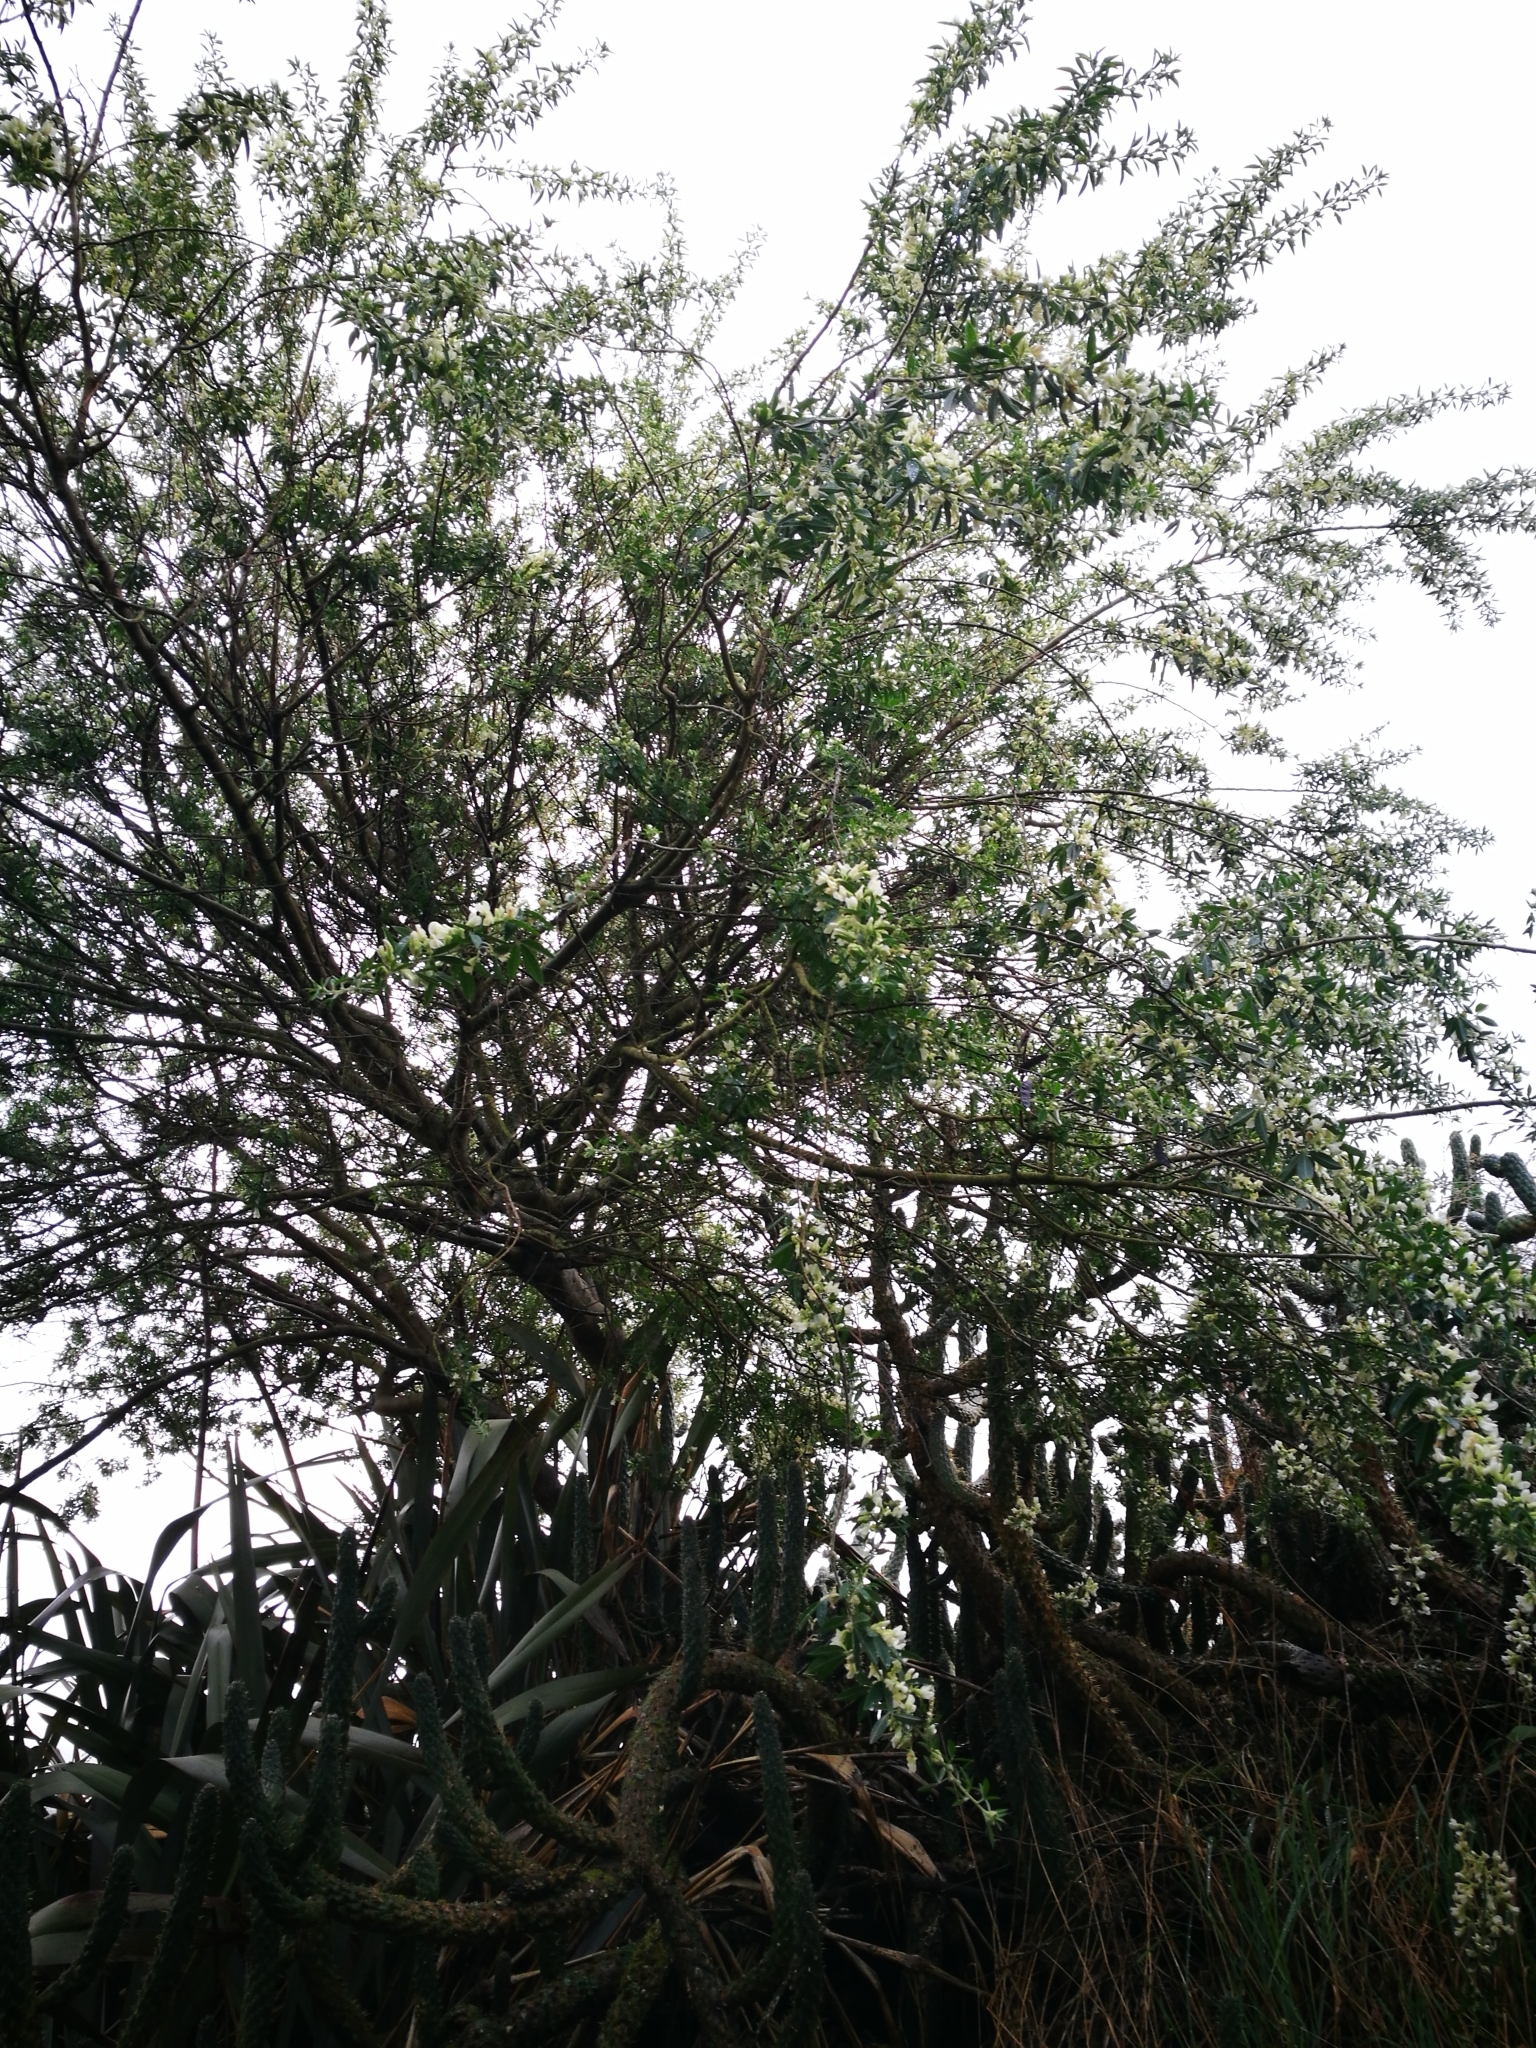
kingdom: Plantae
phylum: Tracheophyta
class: Magnoliopsida
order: Fabales
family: Fabaceae
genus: Chamaecytisus
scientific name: Chamaecytisus prolifer
